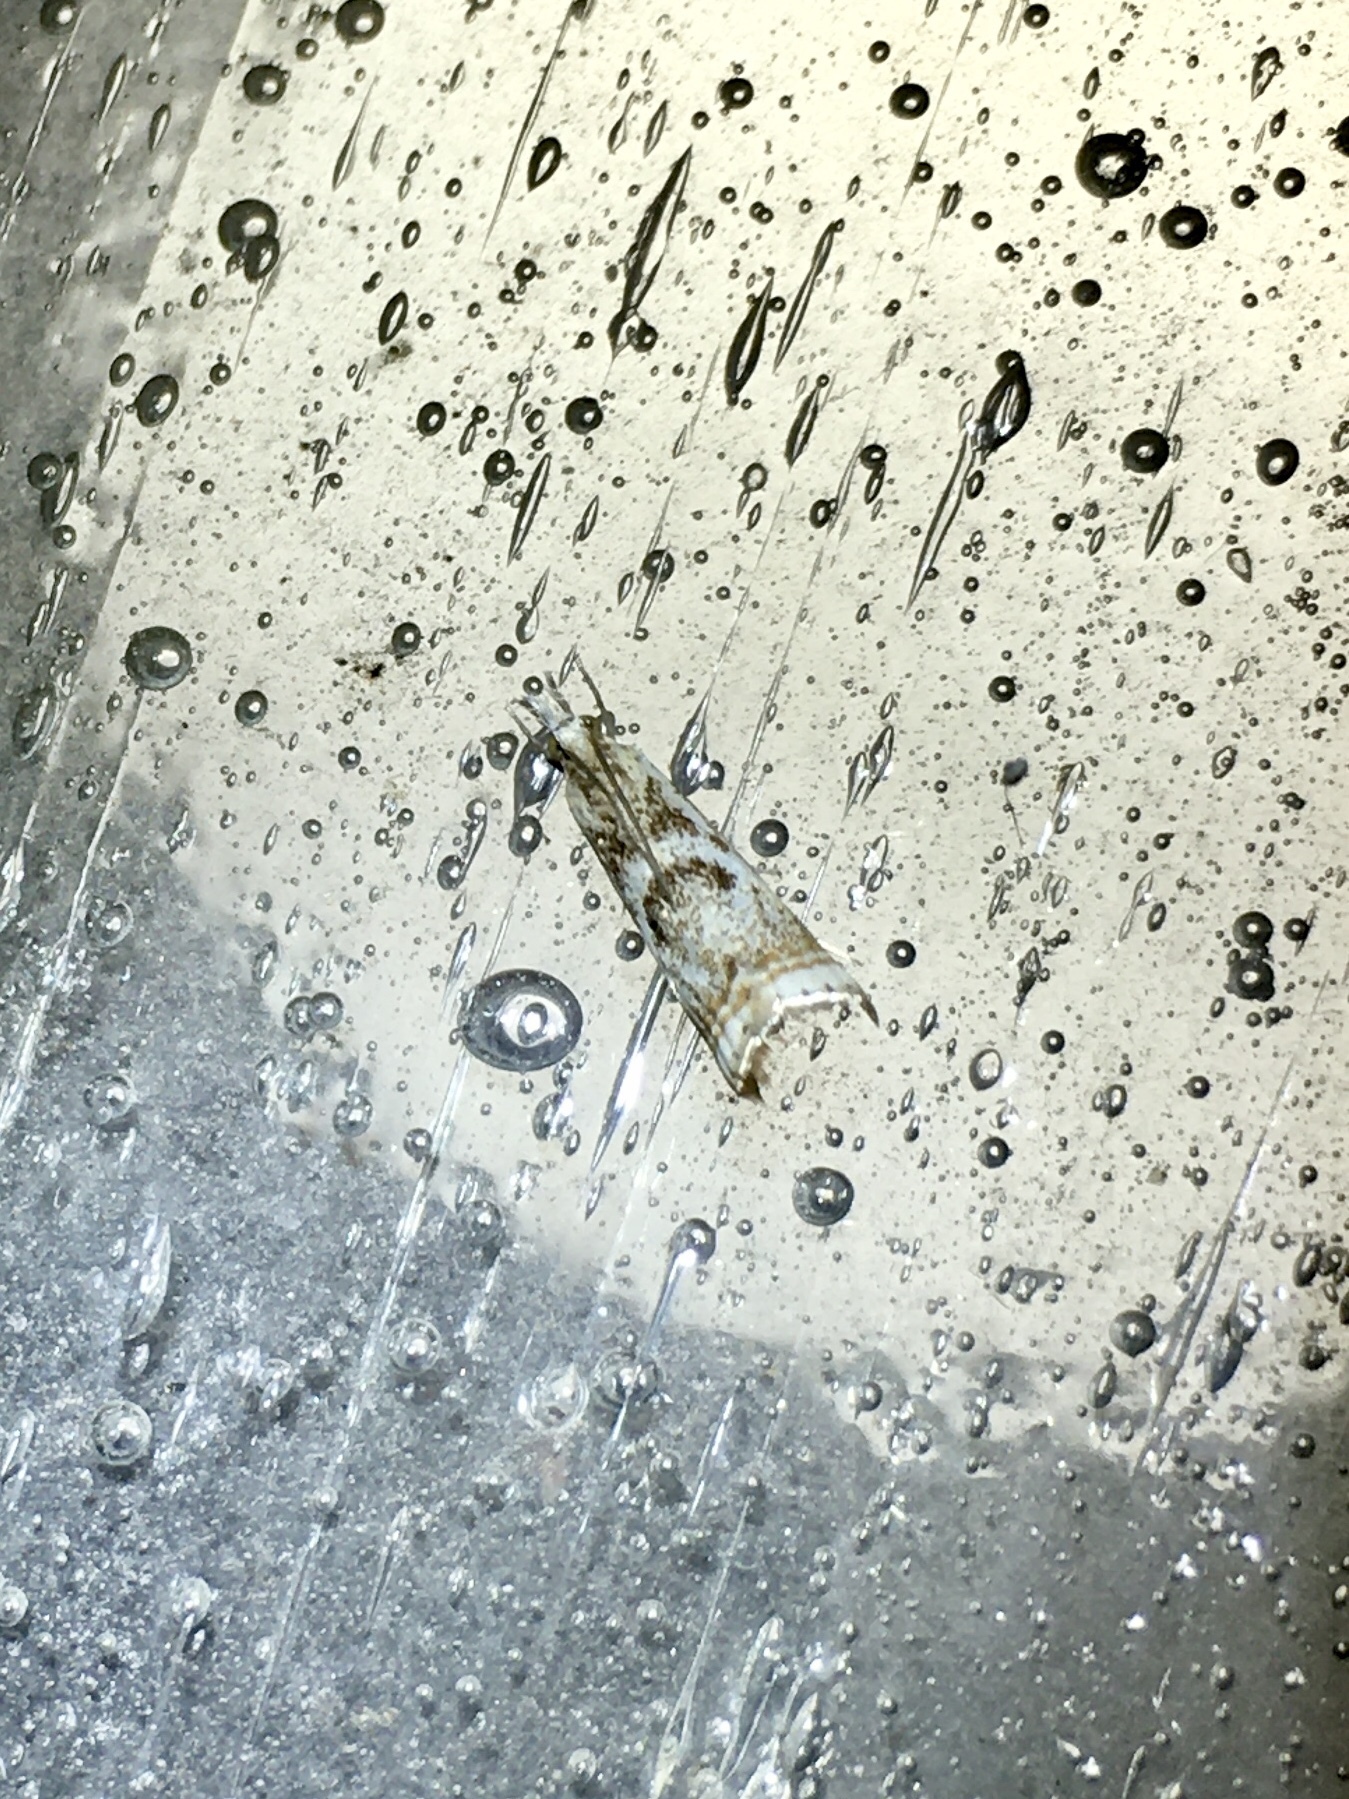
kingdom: Animalia
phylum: Arthropoda
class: Insecta
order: Lepidoptera
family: Crambidae
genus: Microcrambus
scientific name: Microcrambus elegans
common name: Elegant grass-veneer
